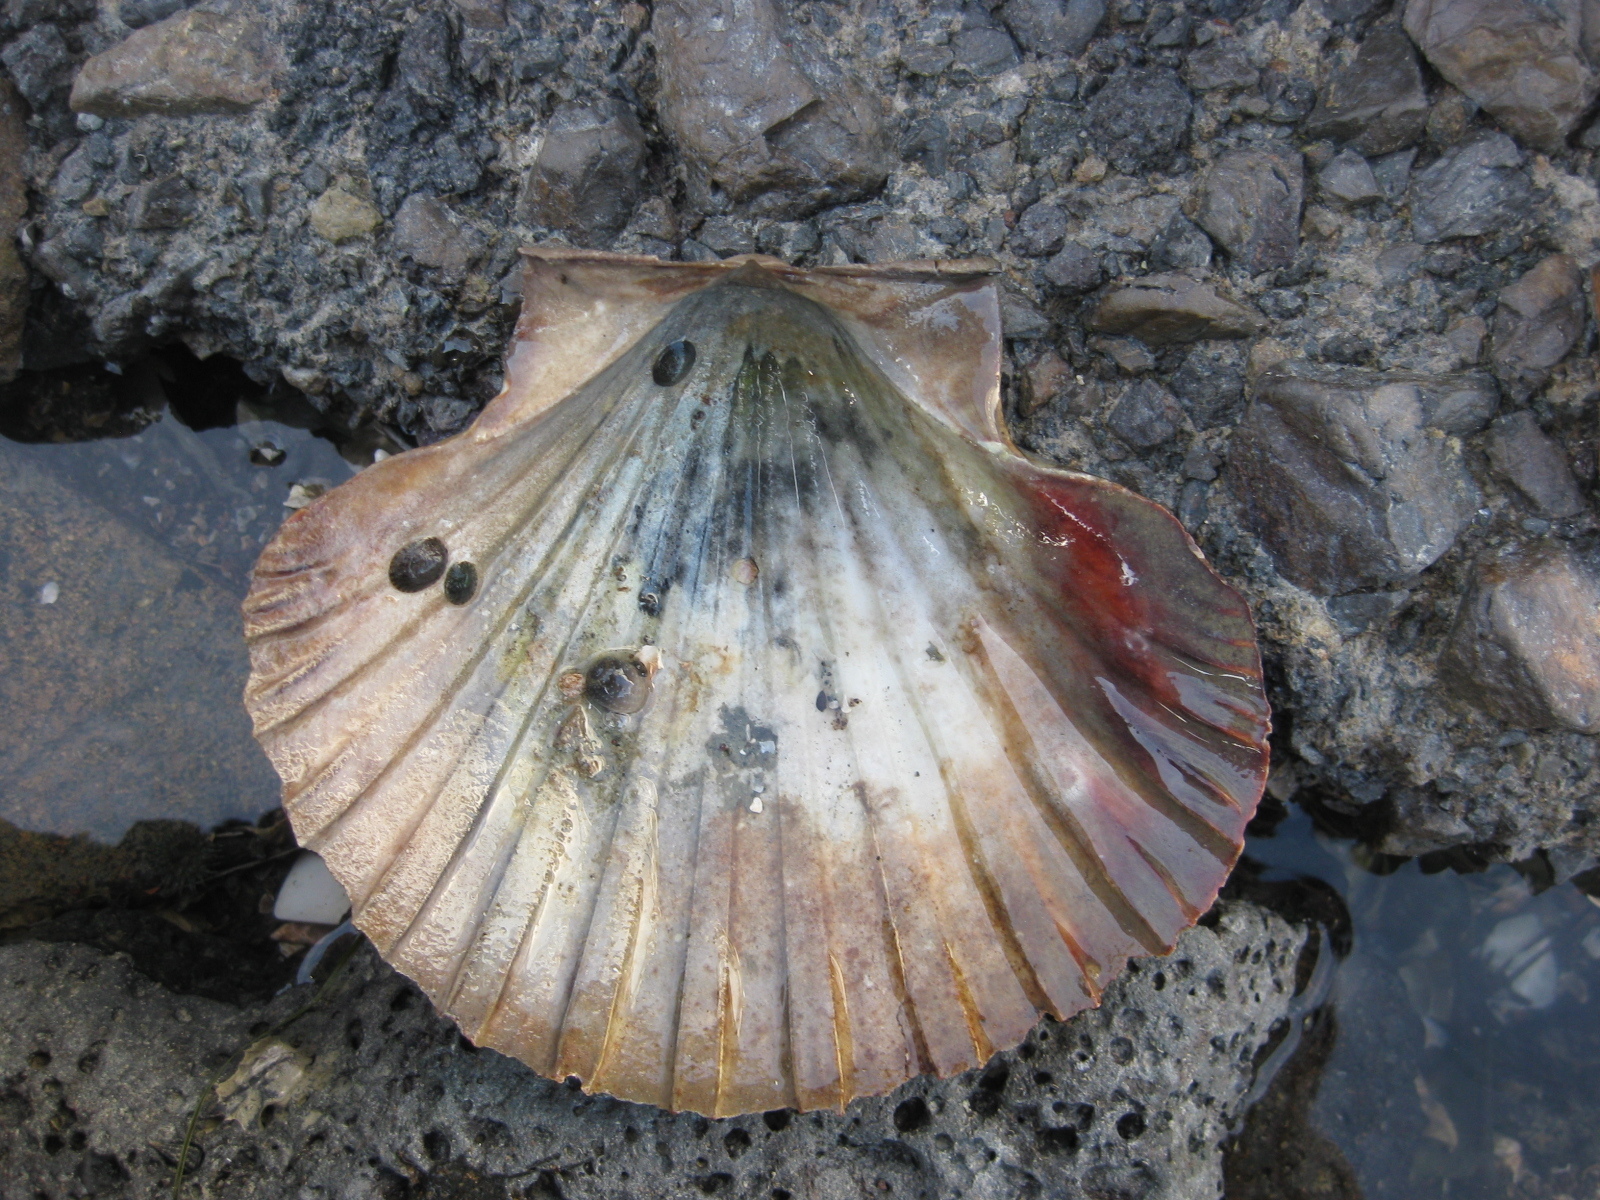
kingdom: Animalia
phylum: Mollusca
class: Bivalvia
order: Pectinida
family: Pectinidae
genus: Pecten
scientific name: Pecten novaezelandiae
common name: New zealand scallop
